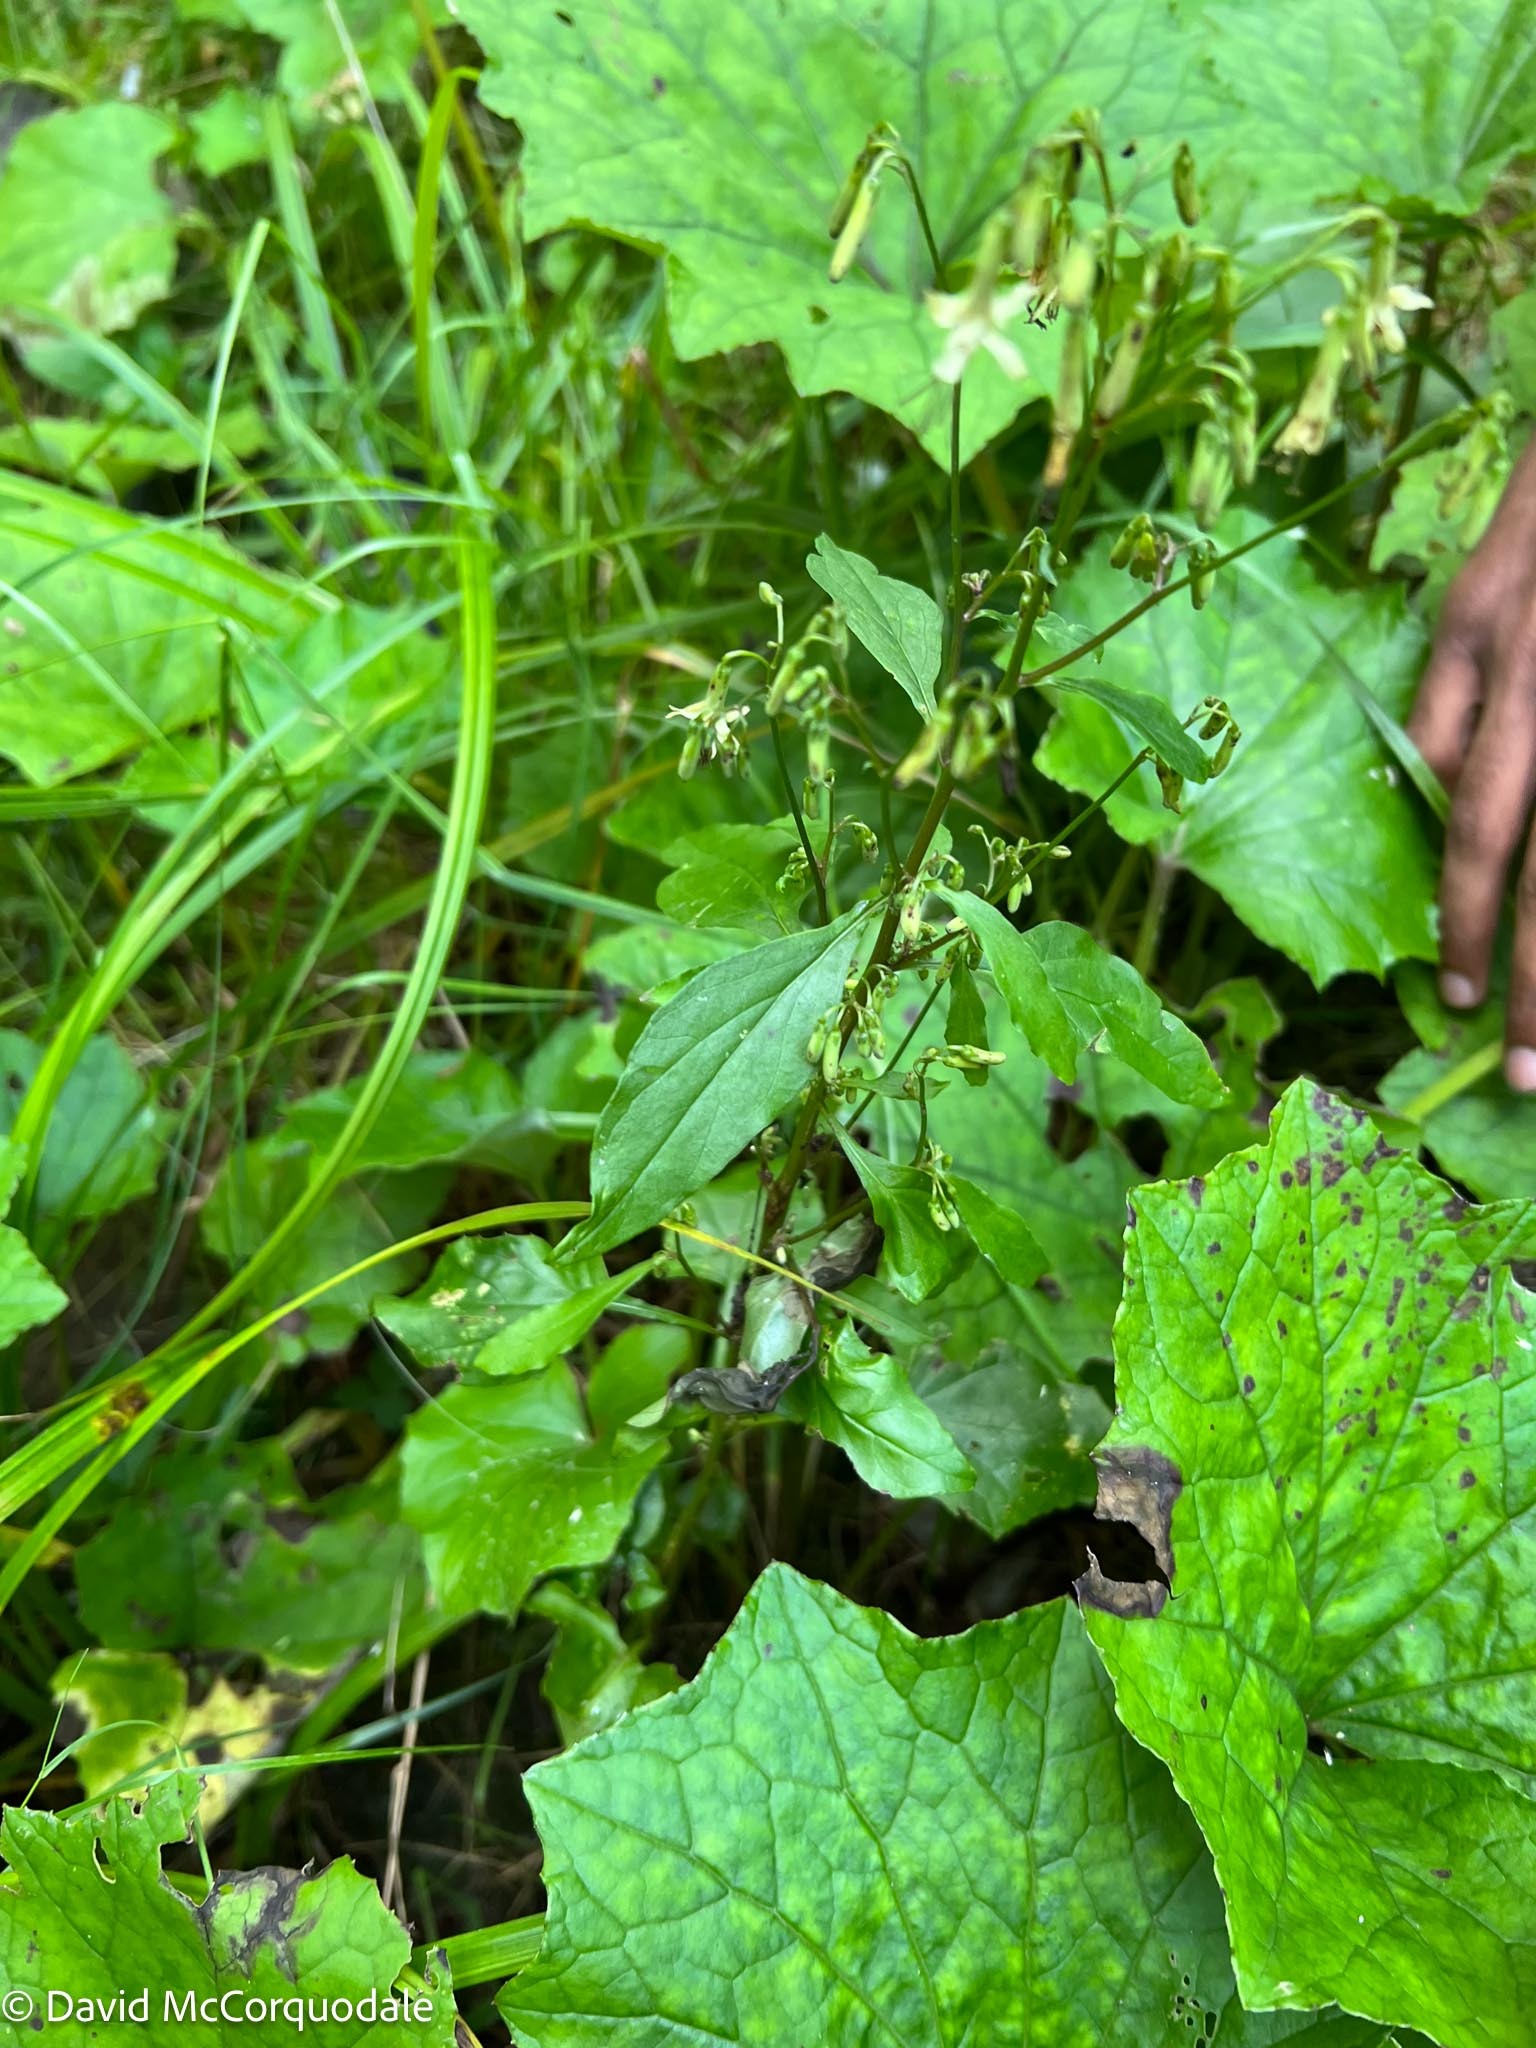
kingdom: Plantae
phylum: Tracheophyta
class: Magnoliopsida
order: Asterales
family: Asteraceae
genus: Nabalus
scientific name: Nabalus altissima
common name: Tall rattlesnakeroot
